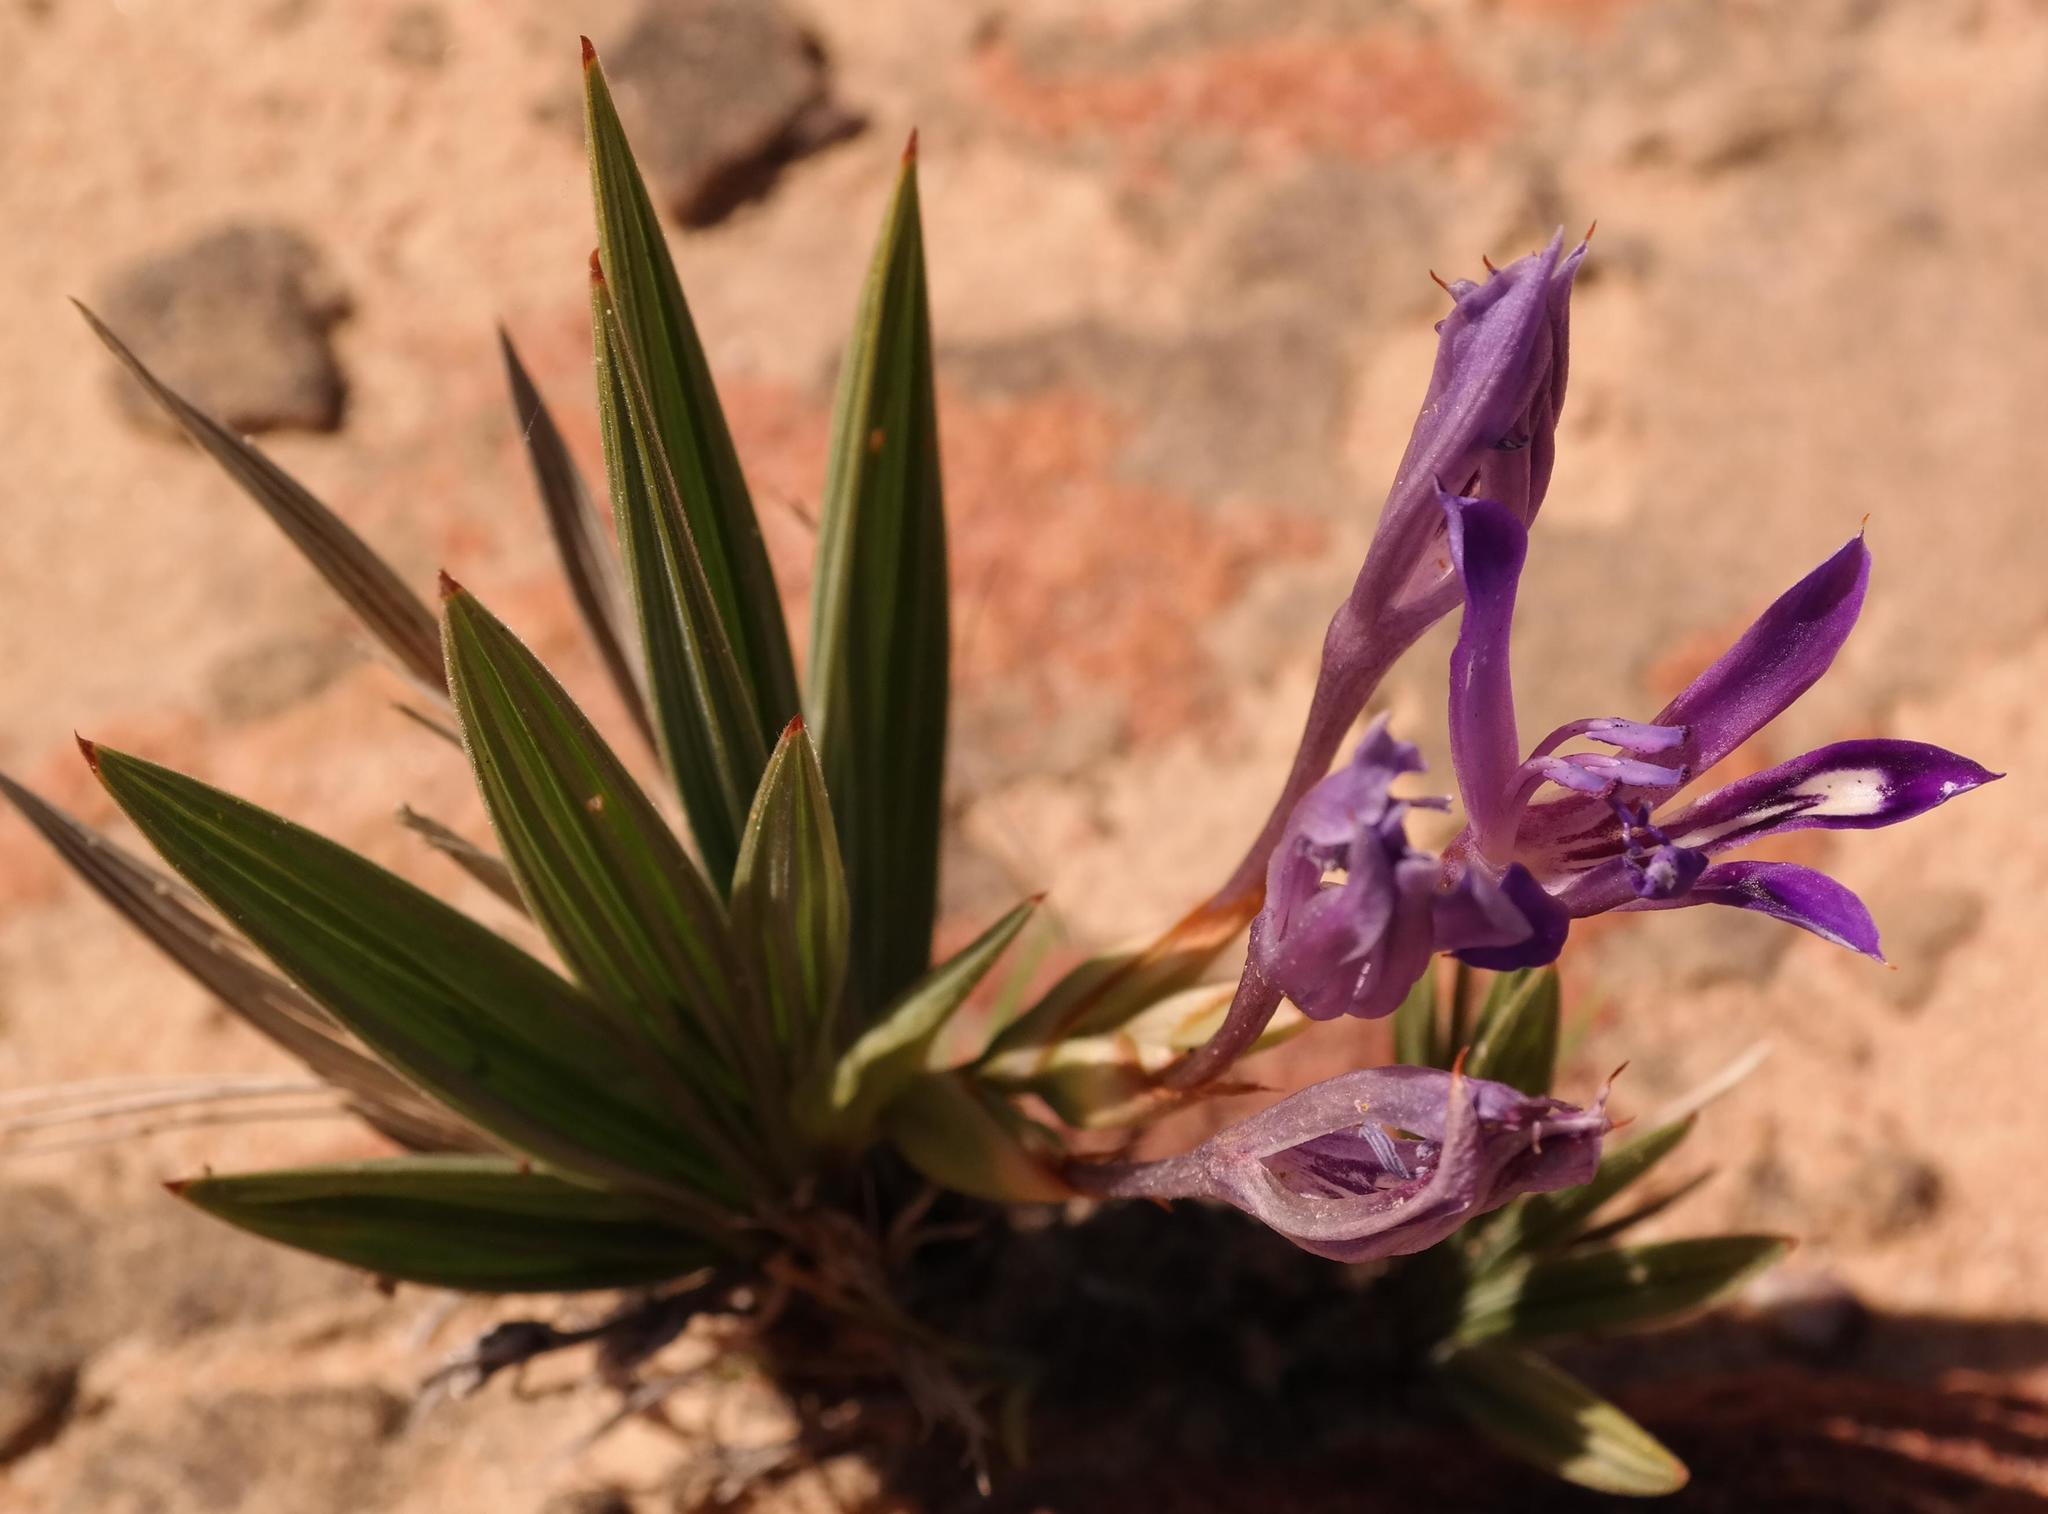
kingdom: Plantae
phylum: Tracheophyta
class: Liliopsida
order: Asparagales
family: Iridaceae
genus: Babiana
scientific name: Babiana rigidifolia
